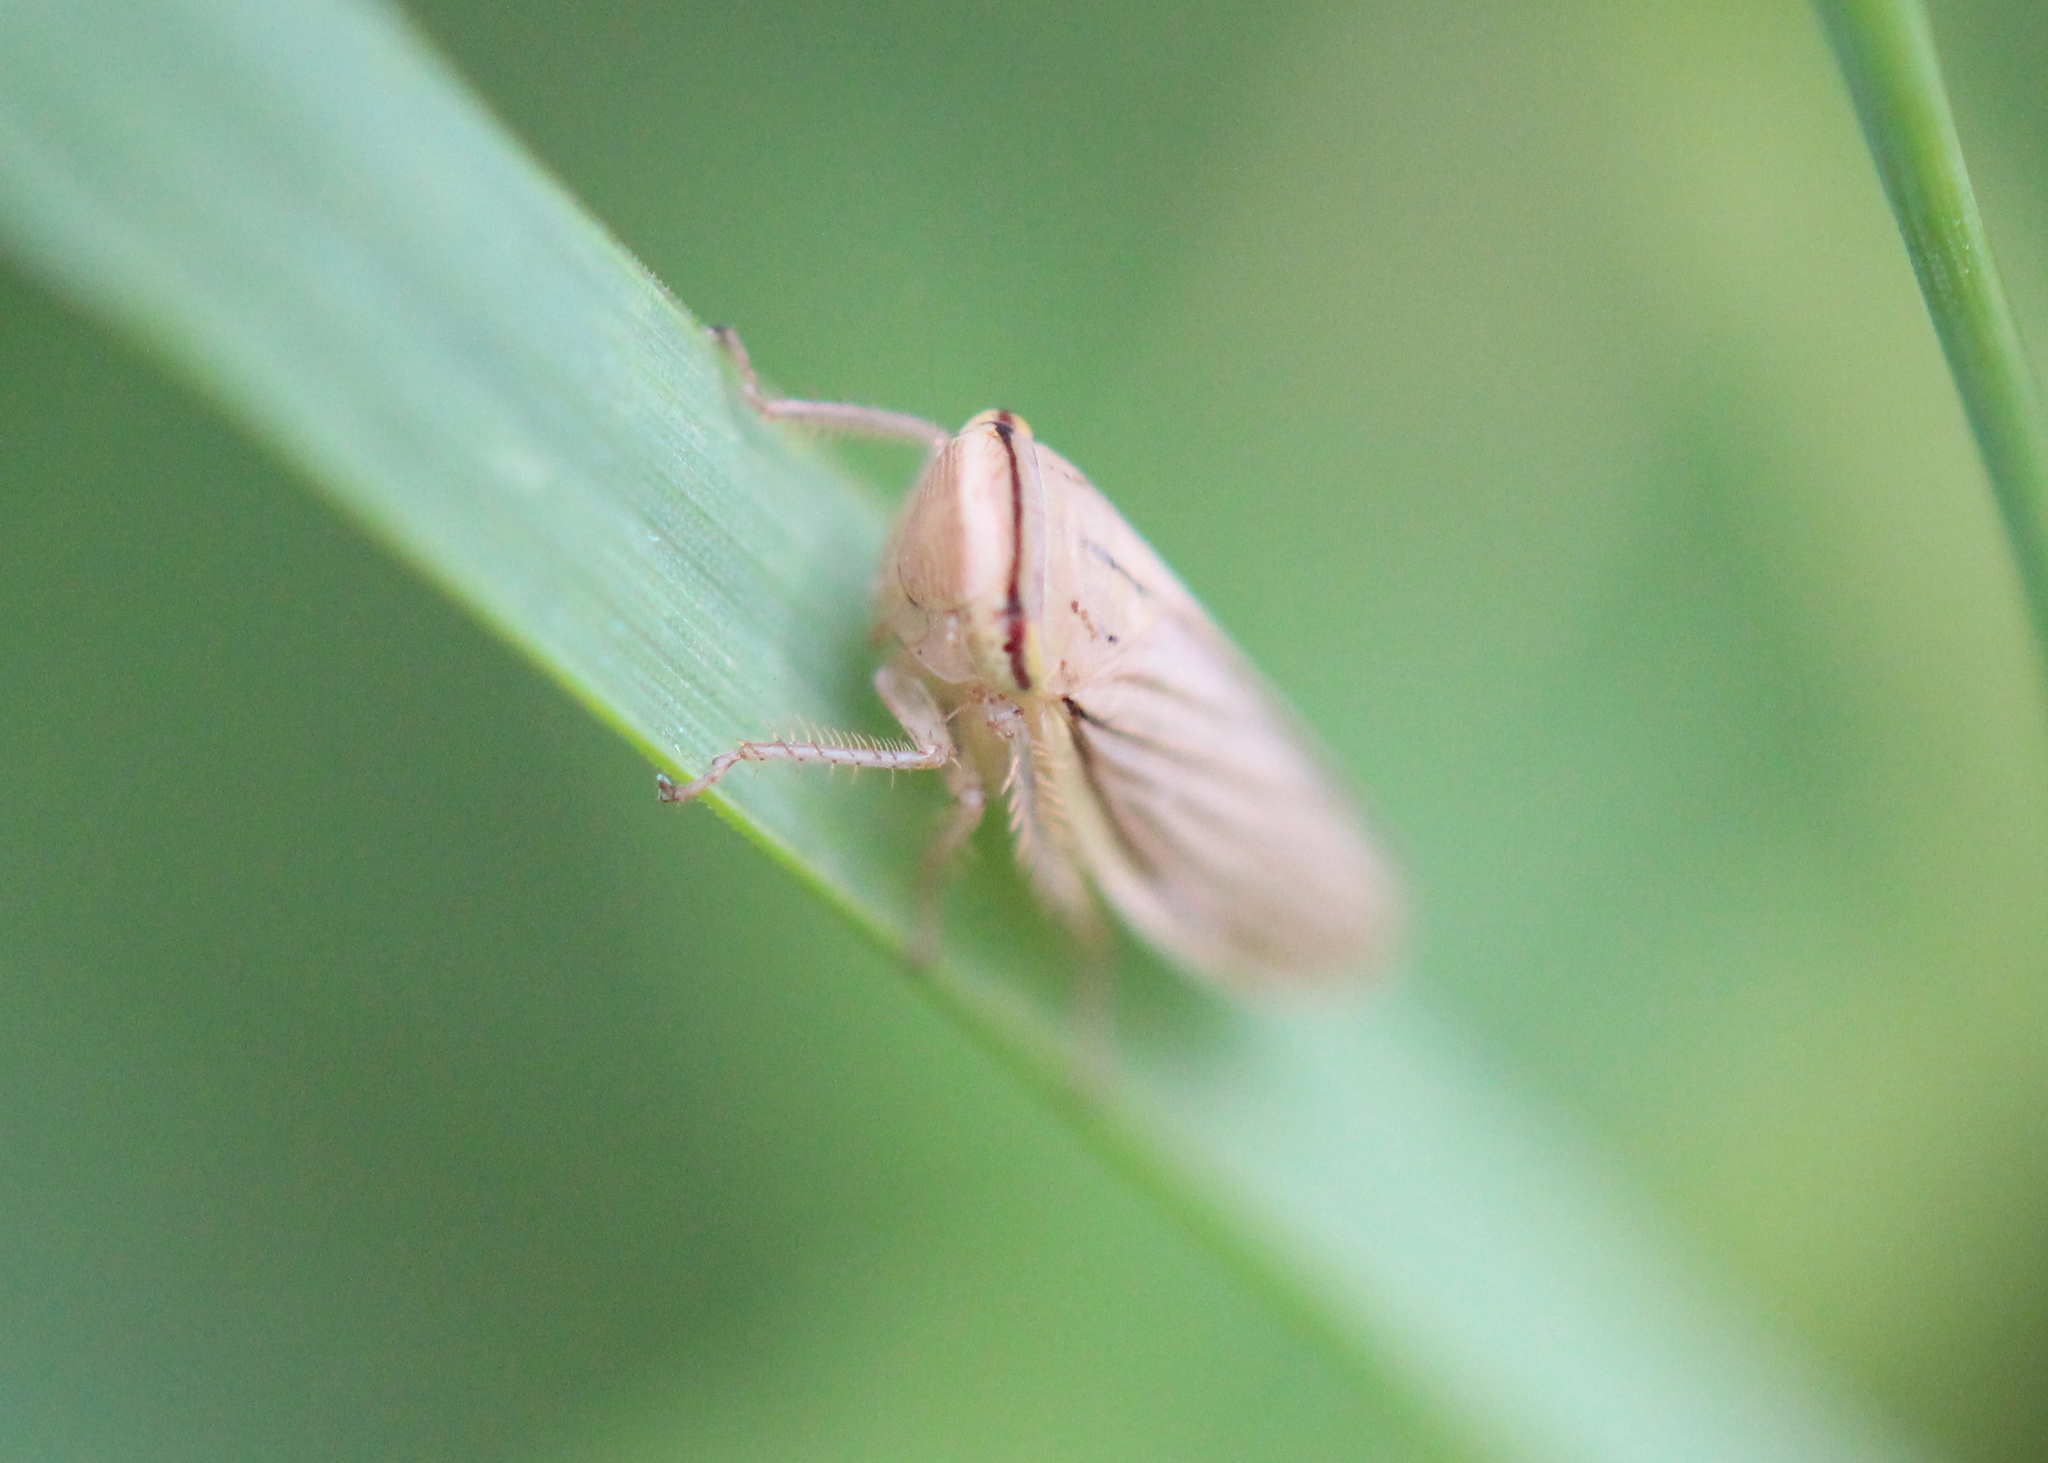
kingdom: Animalia
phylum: Arthropoda
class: Insecta
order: Hemiptera
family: Cicadellidae
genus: Athysanus
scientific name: Athysanus argentarius
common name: Silver leafhopper
